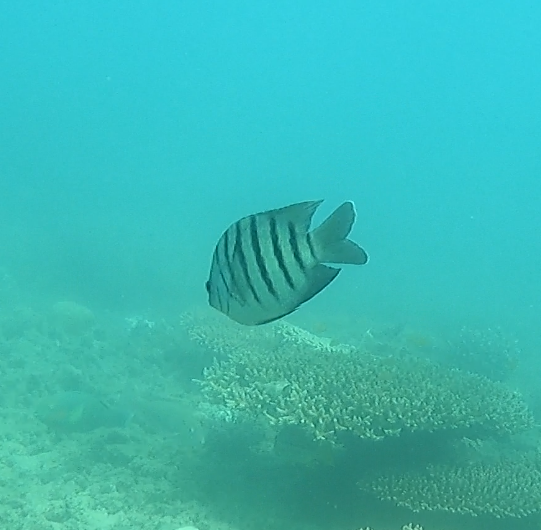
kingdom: Animalia
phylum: Chordata
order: Perciformes
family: Pomacentridae
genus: Abudefduf
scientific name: Abudefduf bengalensis
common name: Bengal sergeant
